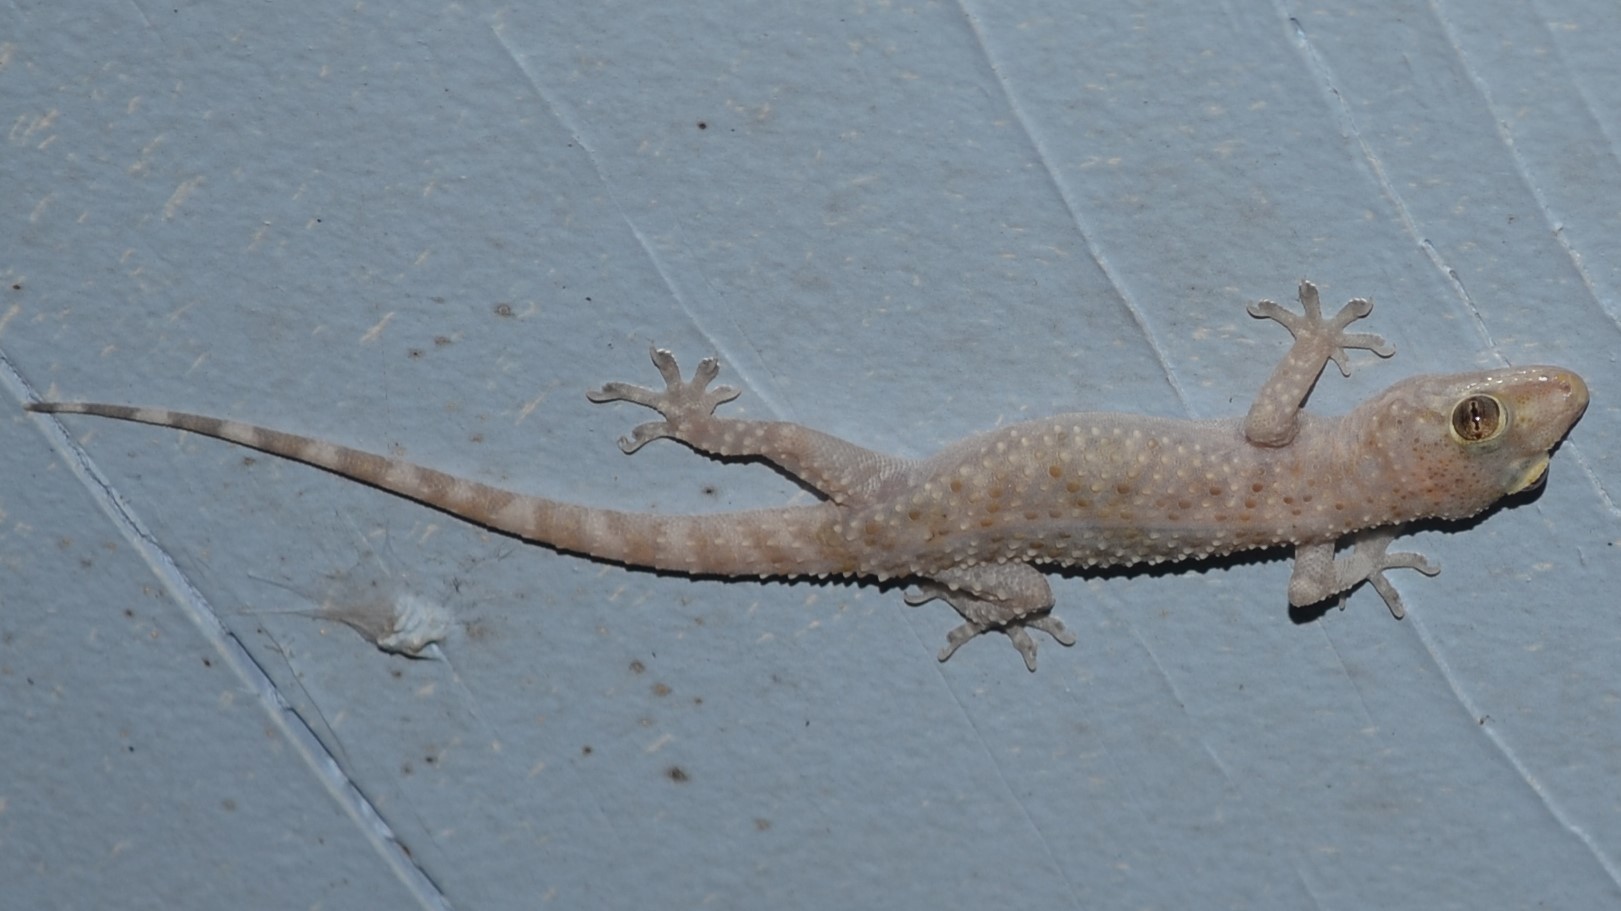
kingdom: Animalia
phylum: Chordata
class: Squamata
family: Gekkonidae
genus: Hemidactylus
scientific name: Hemidactylus turcicus
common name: Turkish gecko
